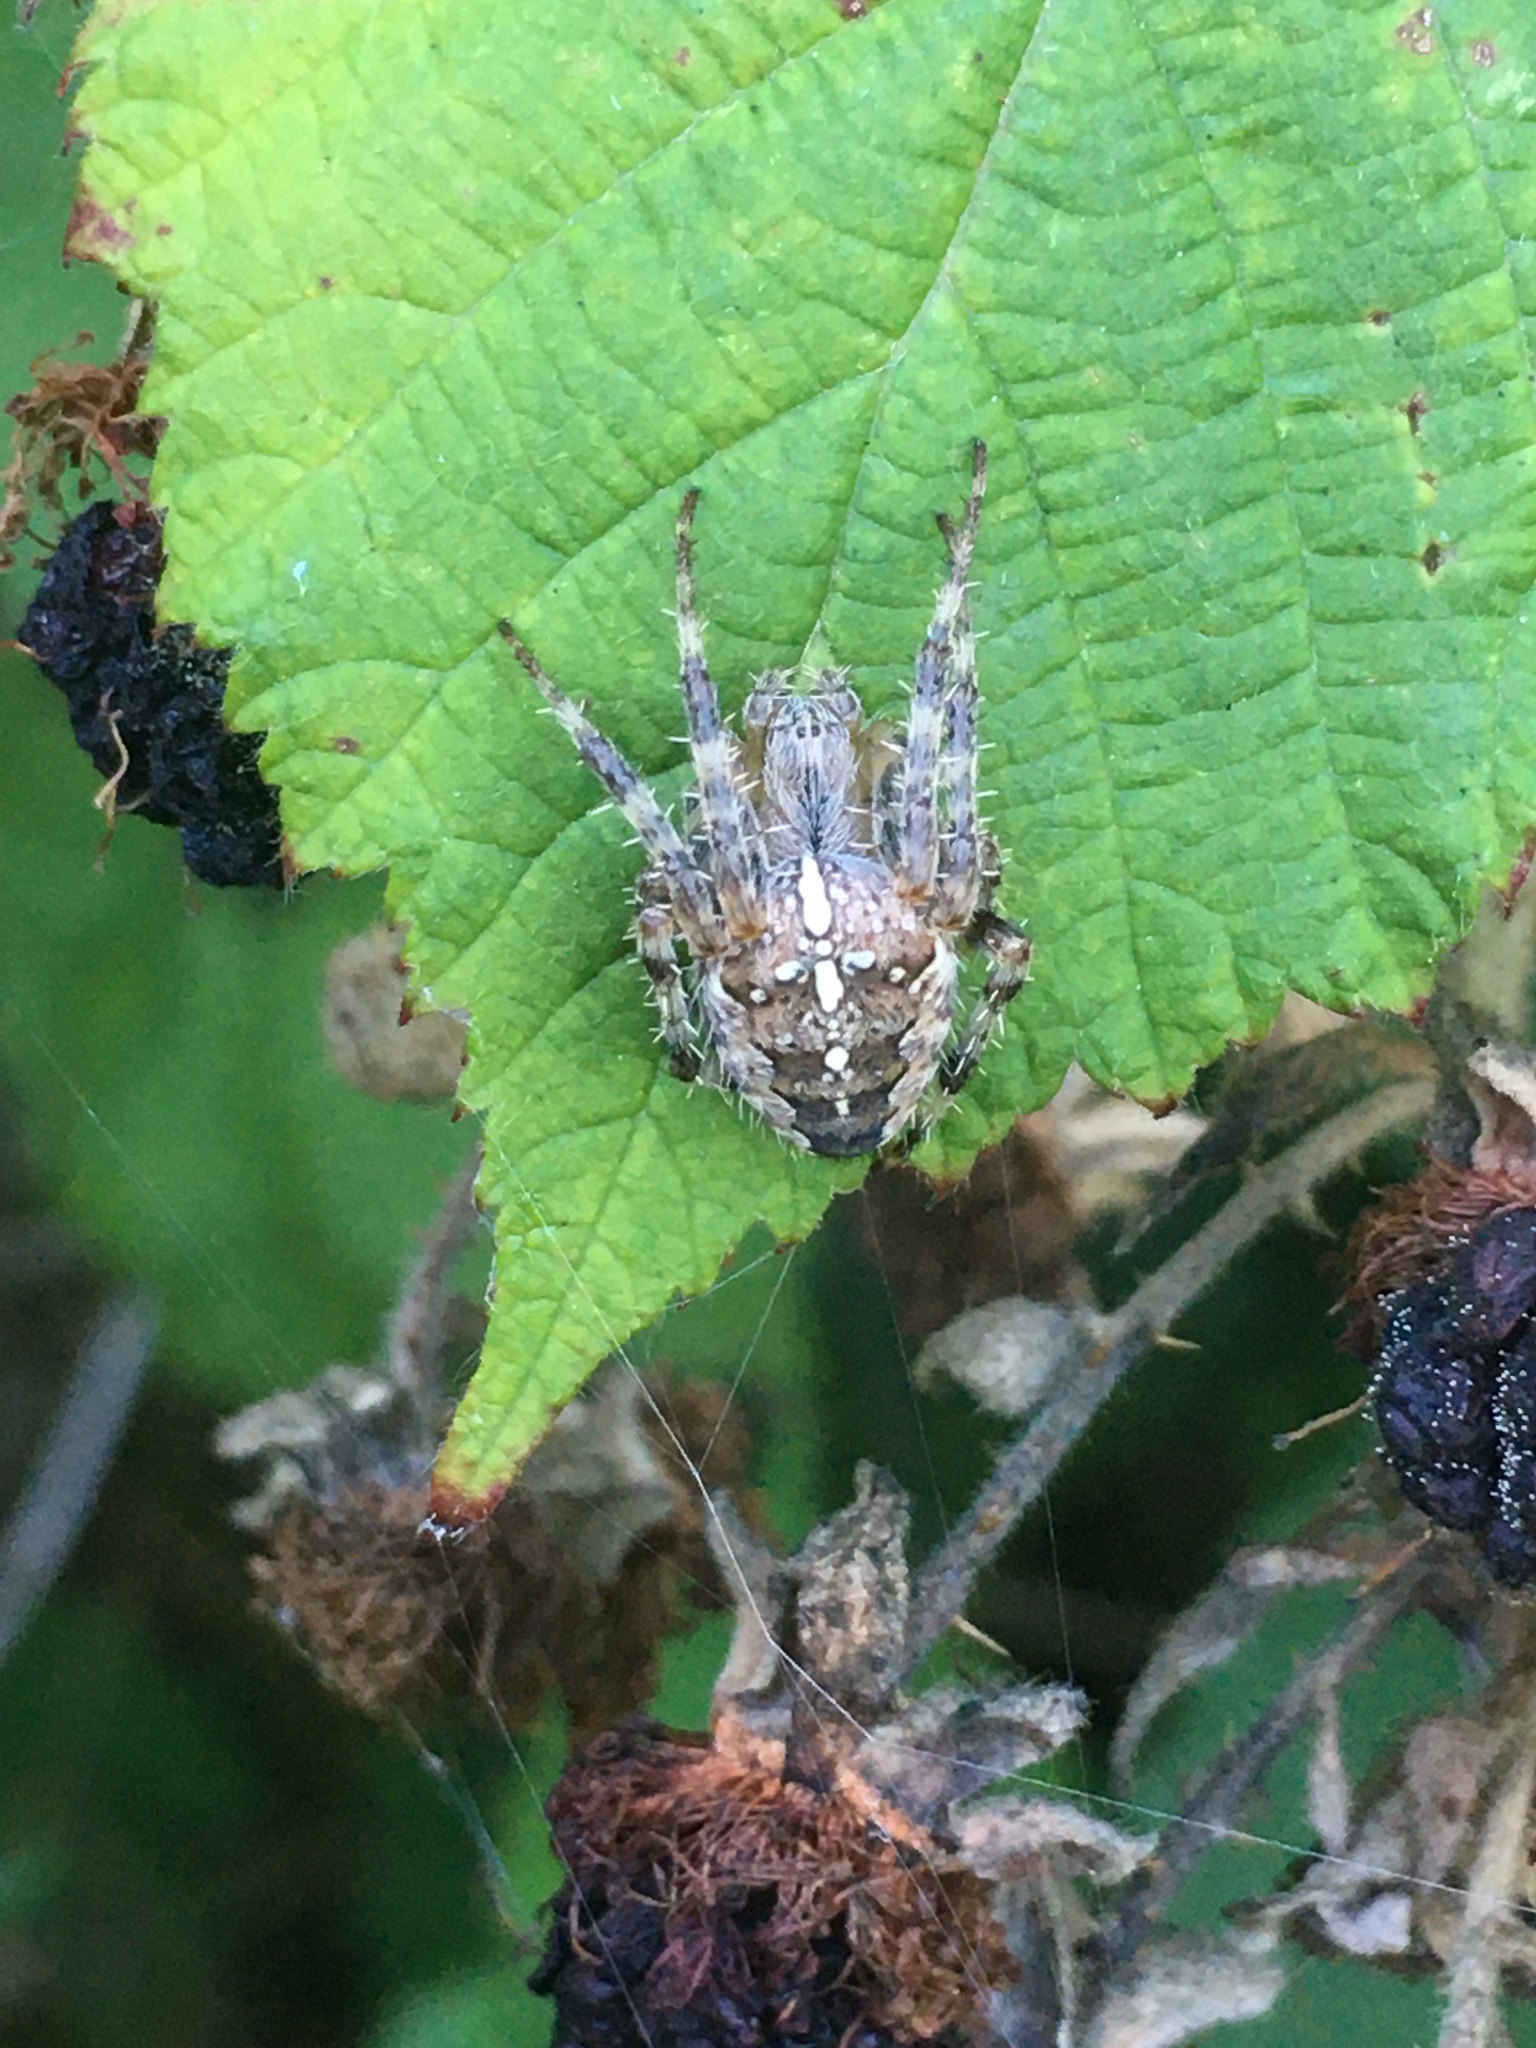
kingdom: Animalia
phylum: Arthropoda
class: Arachnida
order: Araneae
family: Araneidae
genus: Araneus
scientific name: Araneus diadematus
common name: Cross orbweaver
